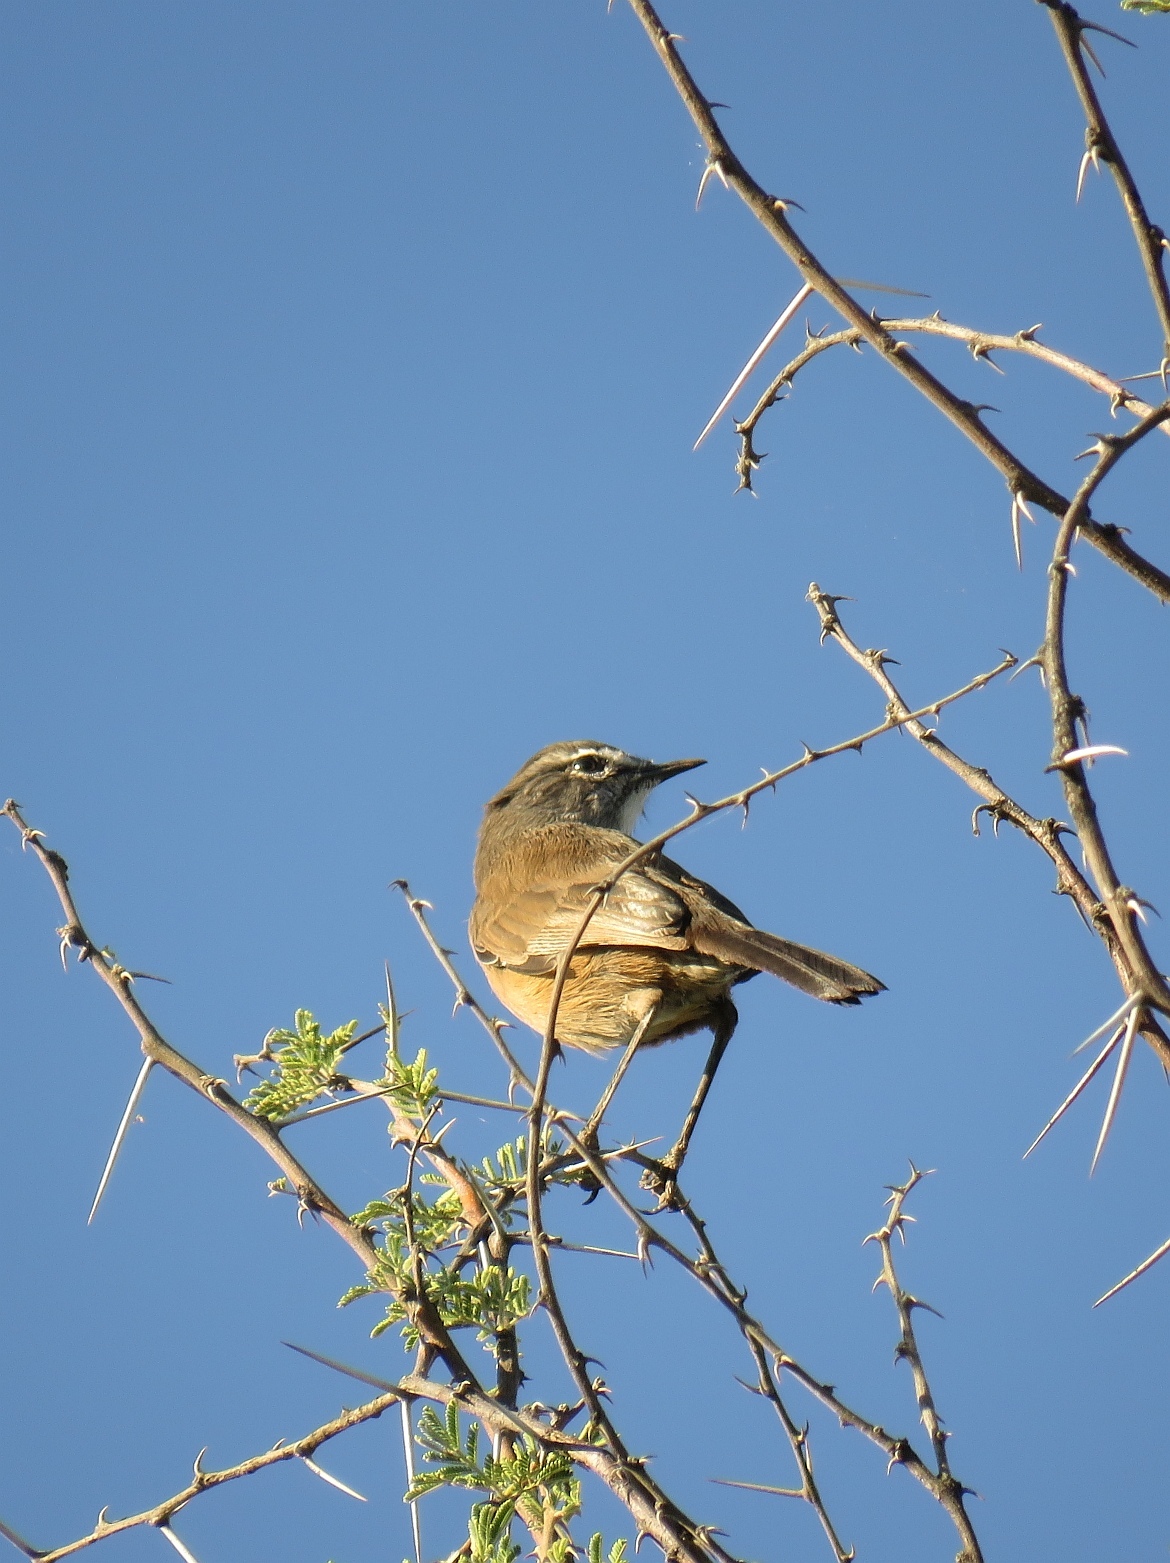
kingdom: Animalia
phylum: Chordata
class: Aves
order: Passeriformes
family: Muscicapidae
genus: Erythropygia
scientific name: Erythropygia coryphoeus
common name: Karoo scrub robin
